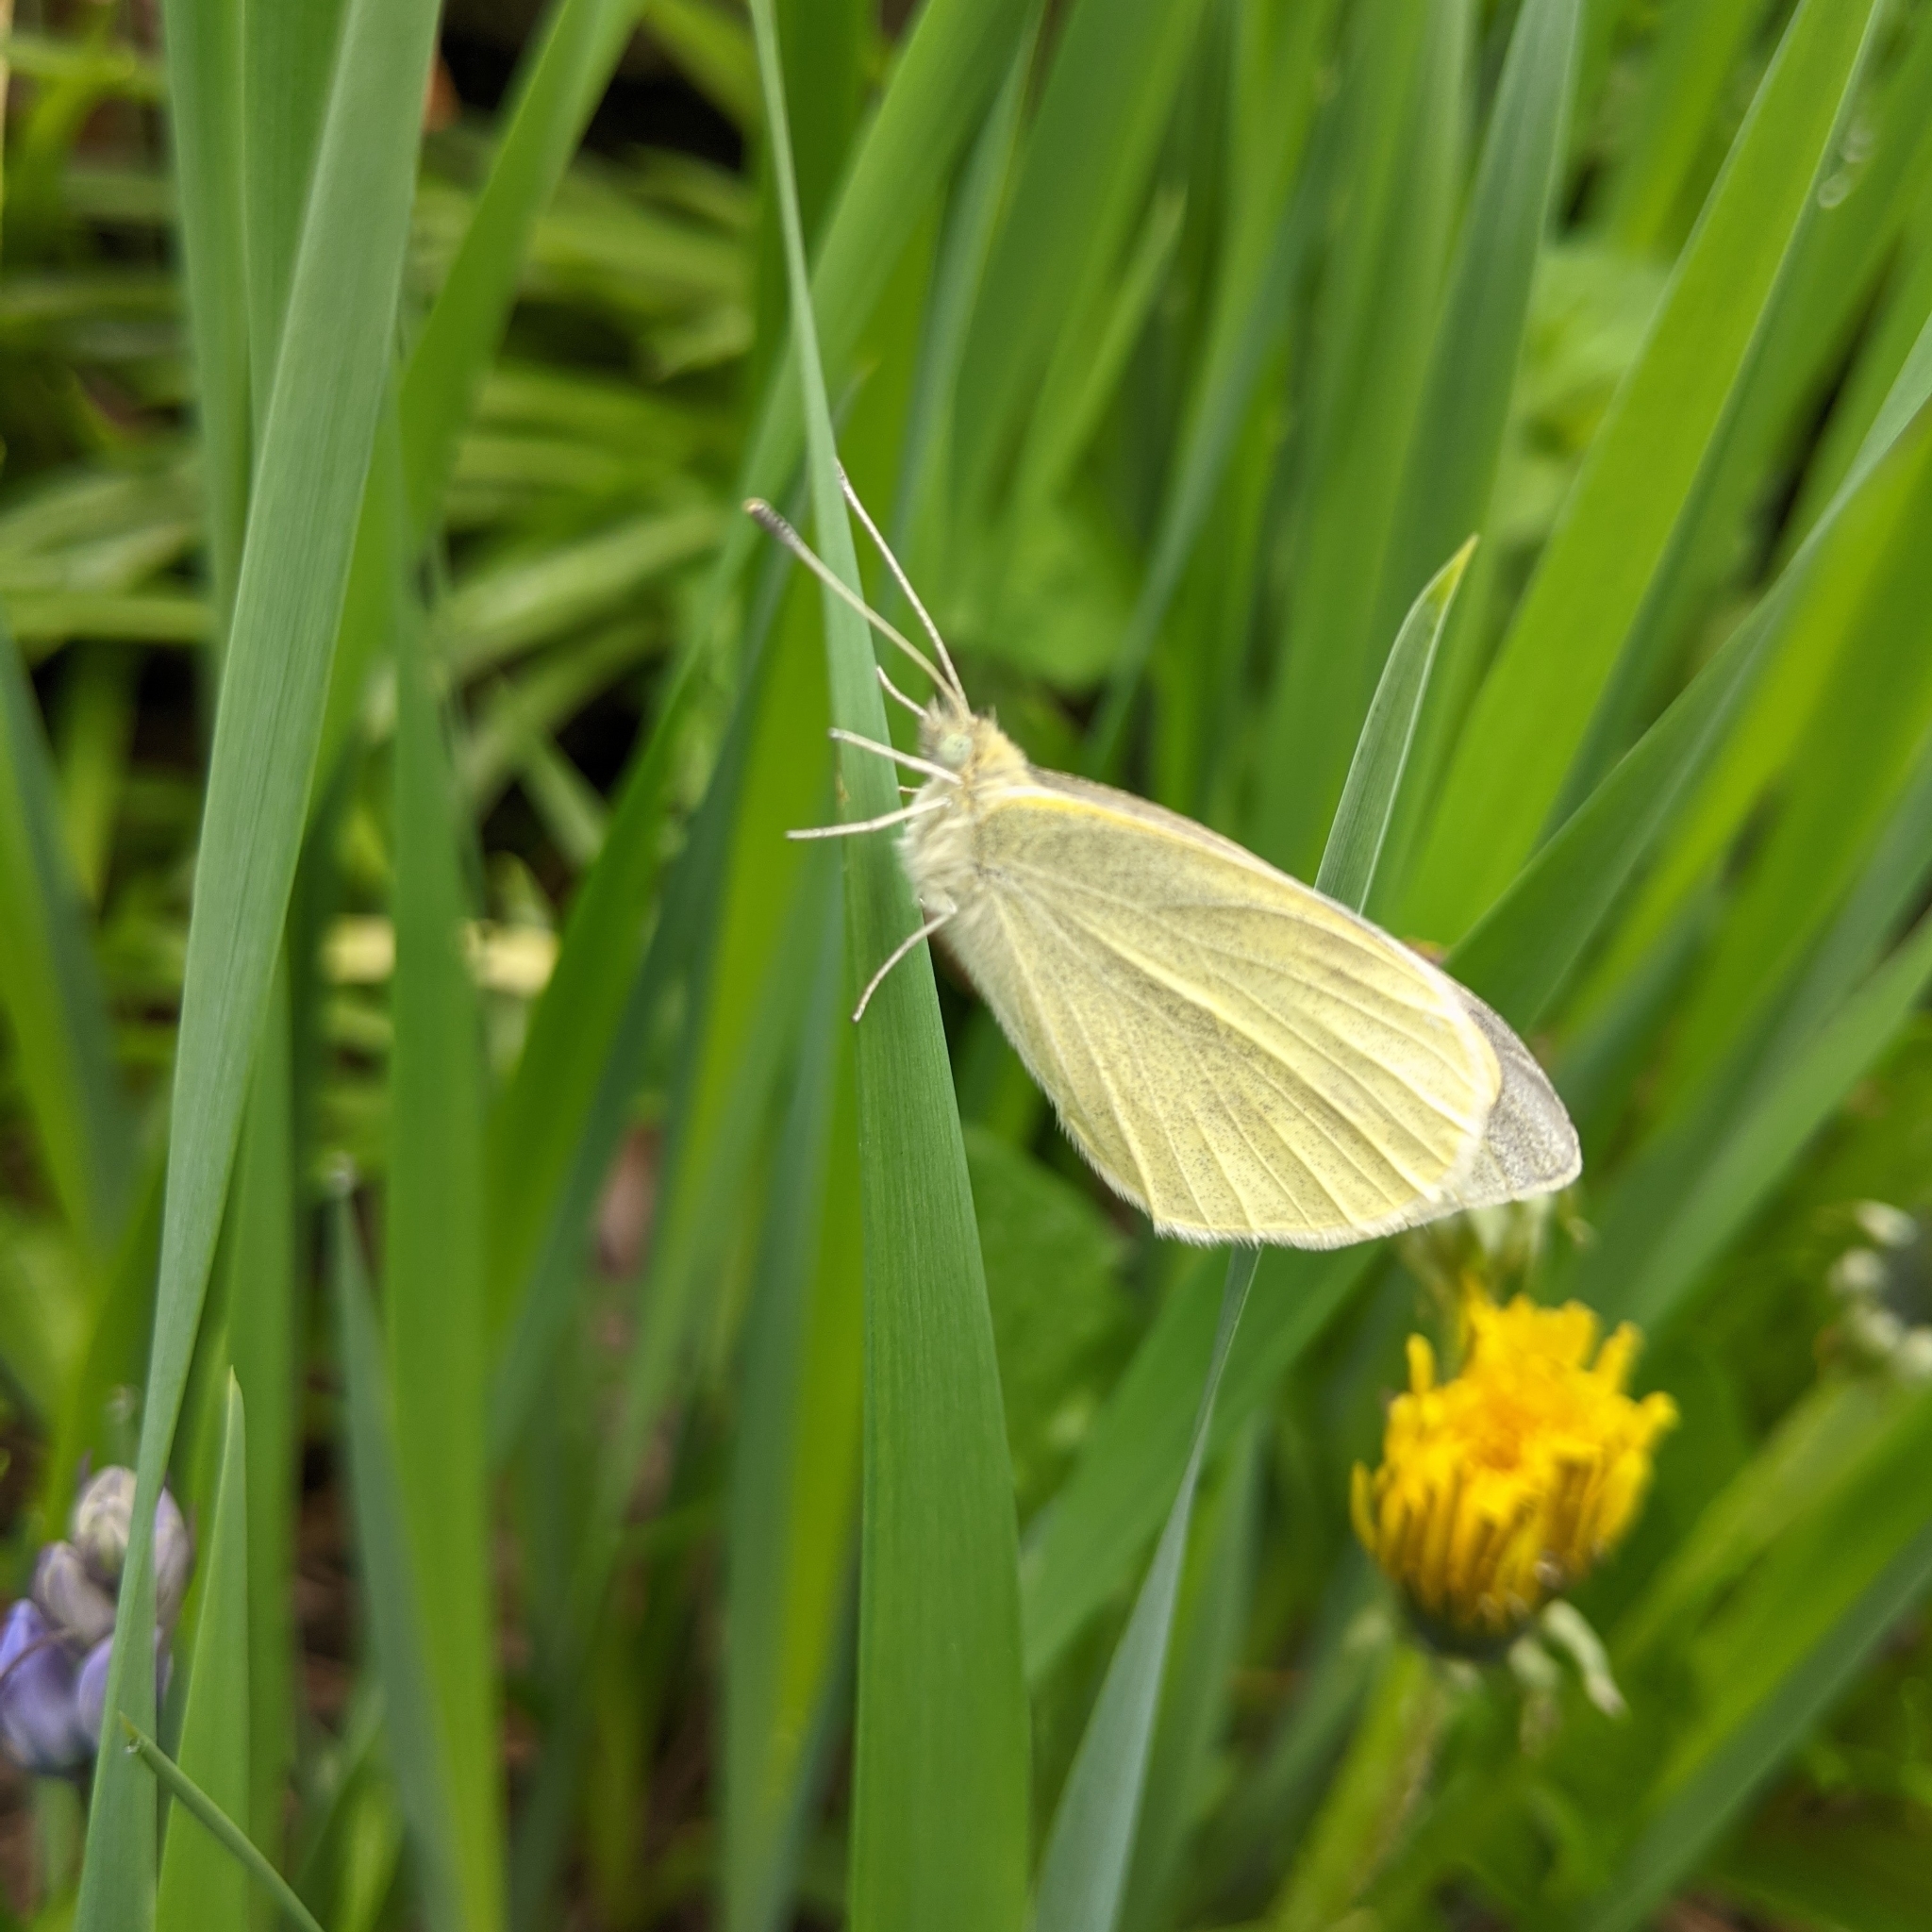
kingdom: Animalia
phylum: Arthropoda
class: Insecta
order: Lepidoptera
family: Pieridae
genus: Pieris
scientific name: Pieris rapae
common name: Small white
